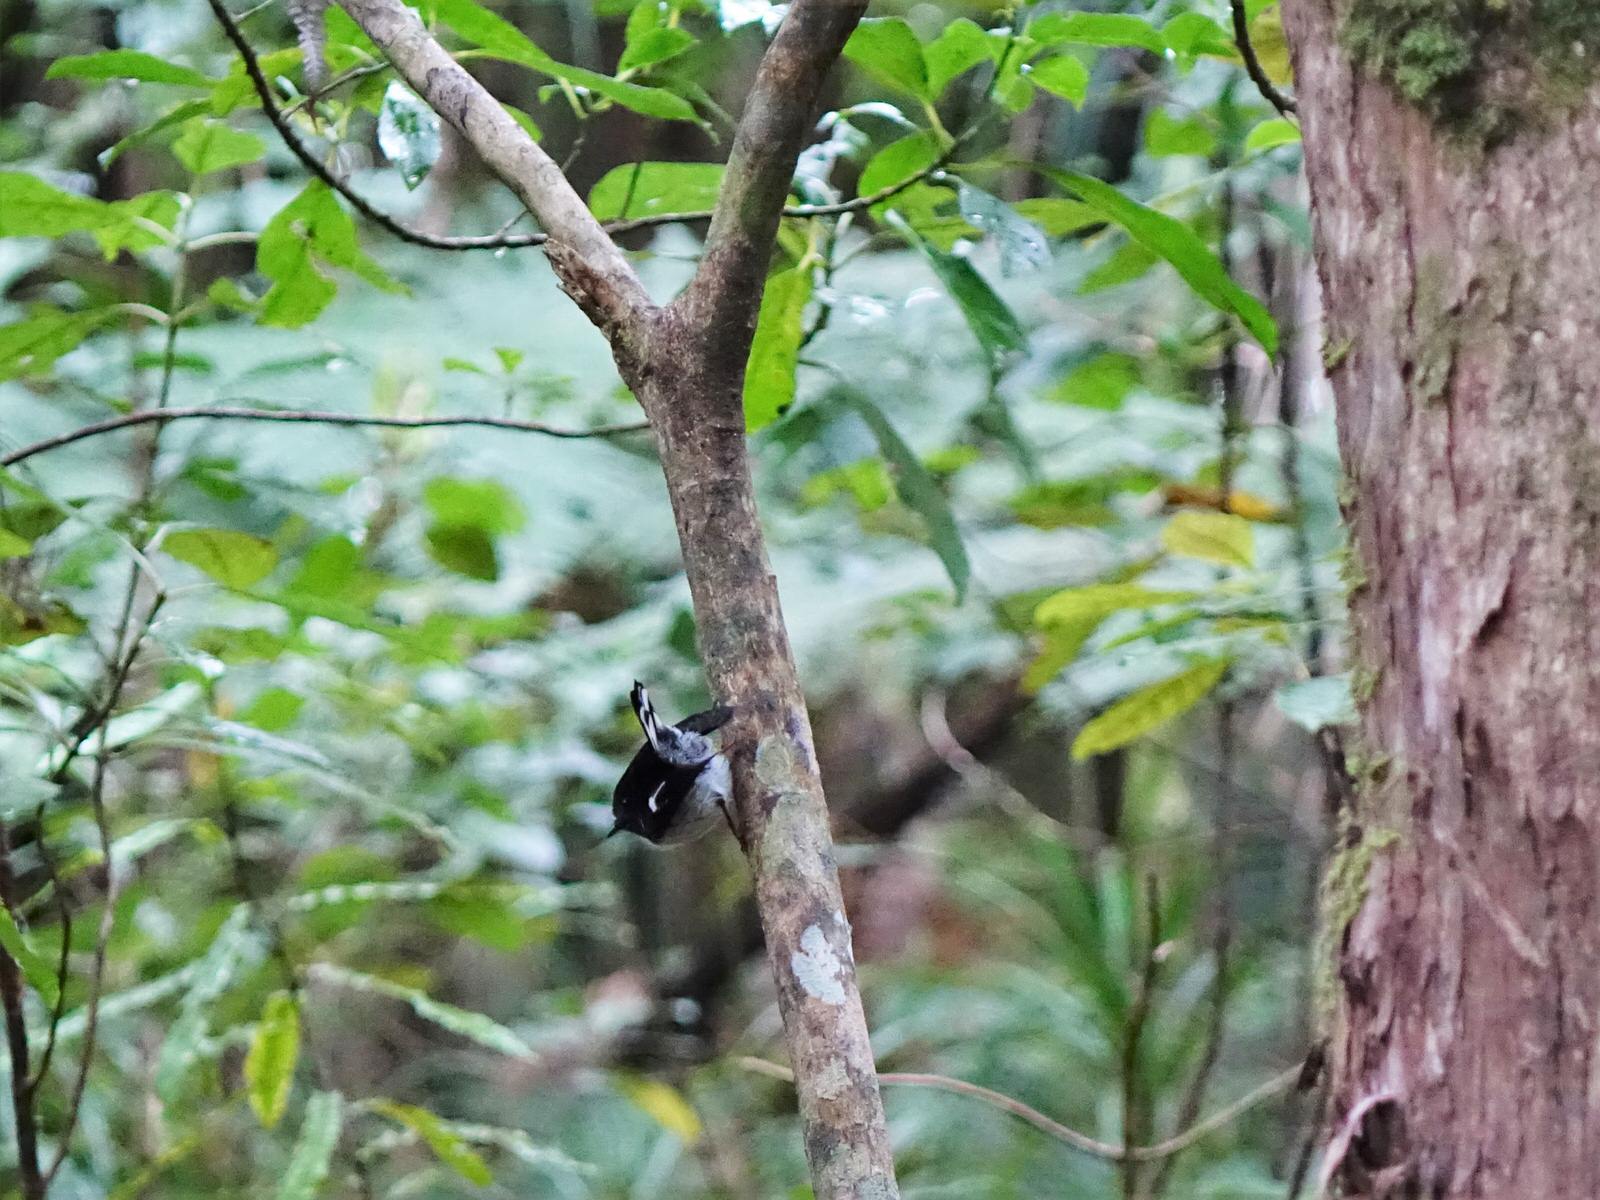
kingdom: Animalia
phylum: Chordata
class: Aves
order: Passeriformes
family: Petroicidae
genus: Petroica
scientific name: Petroica macrocephala
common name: Tomtit
